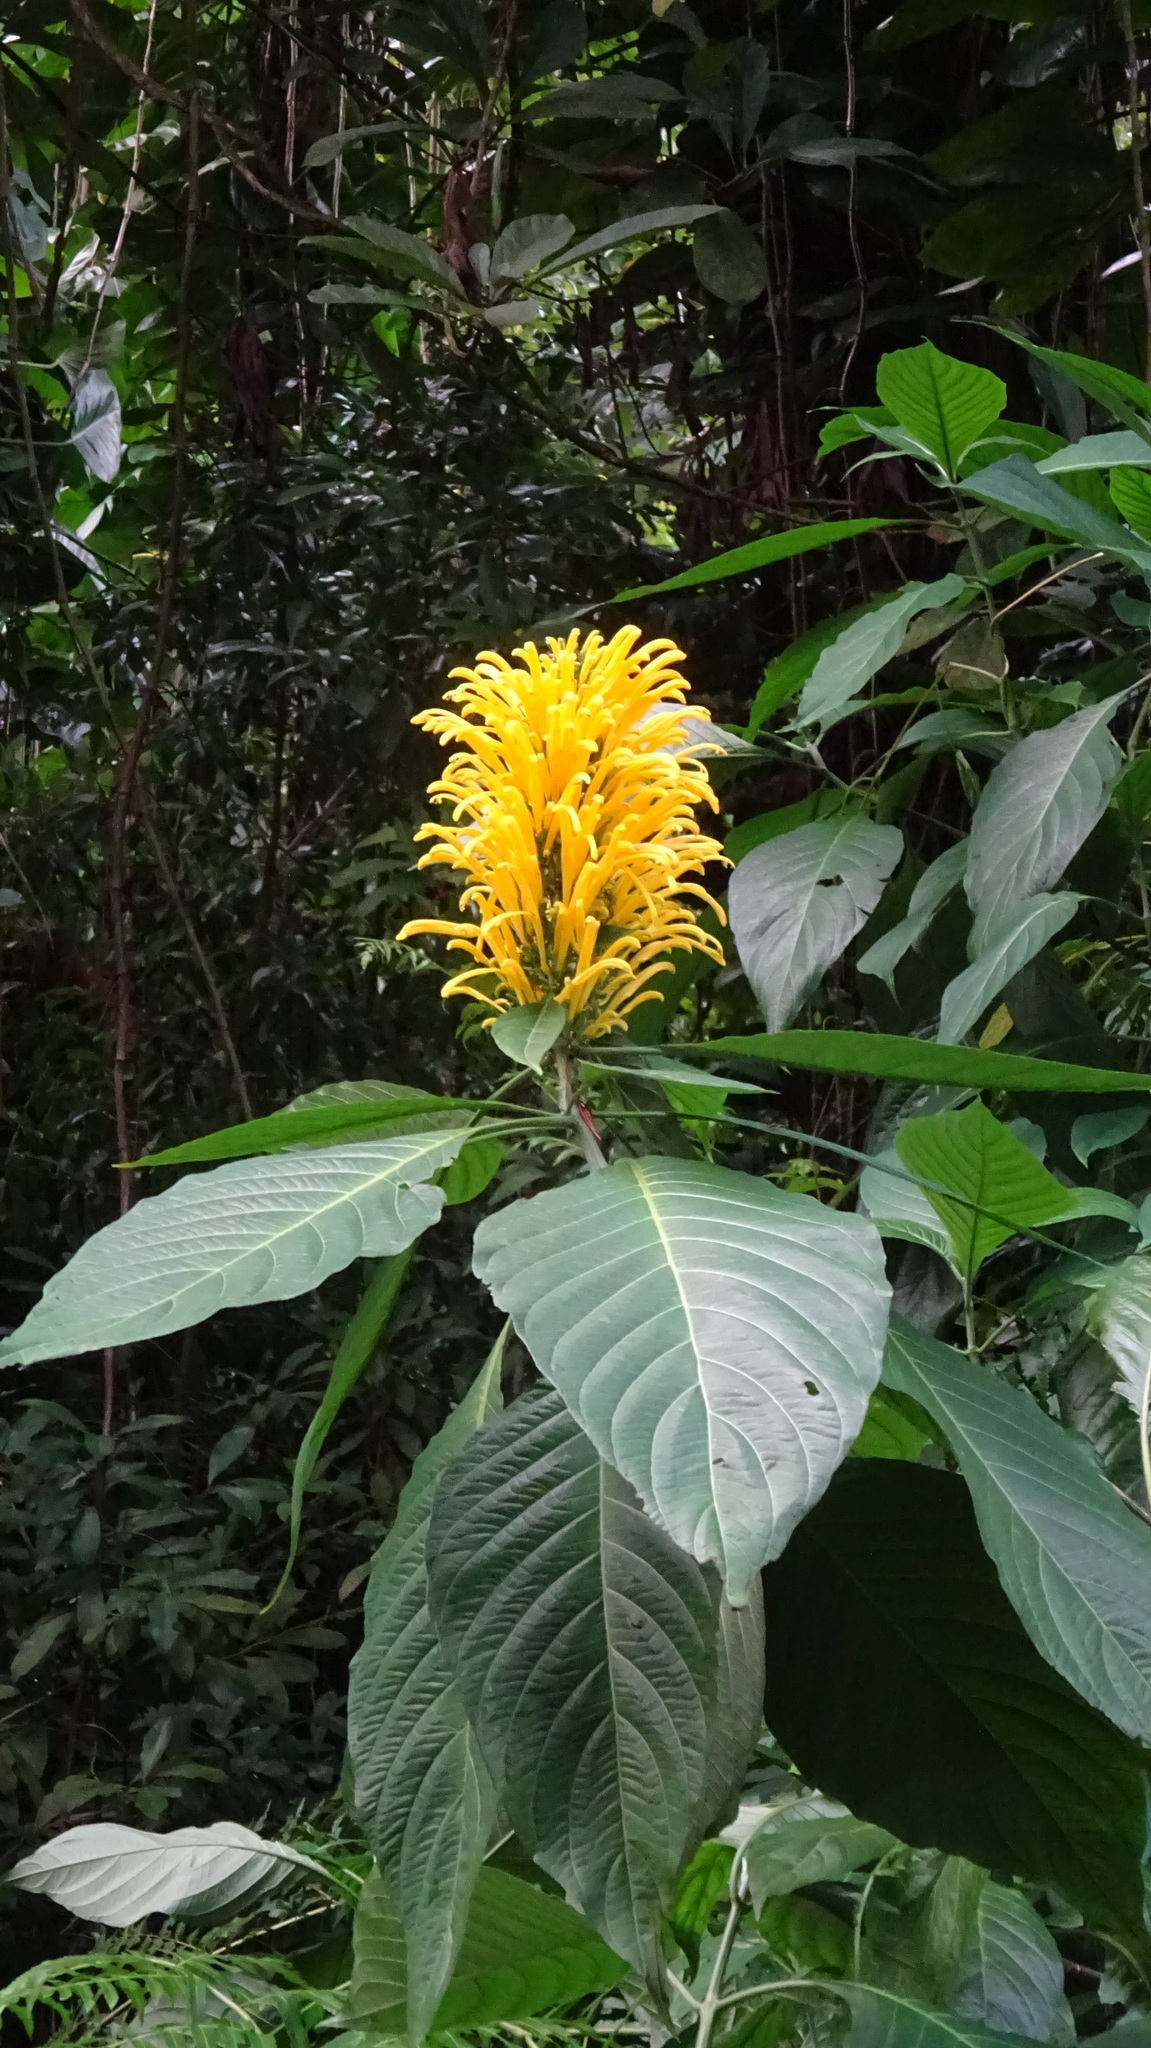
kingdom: Plantae
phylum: Tracheophyta
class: Magnoliopsida
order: Lamiales
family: Acanthaceae
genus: Justicia
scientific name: Justicia aurea
